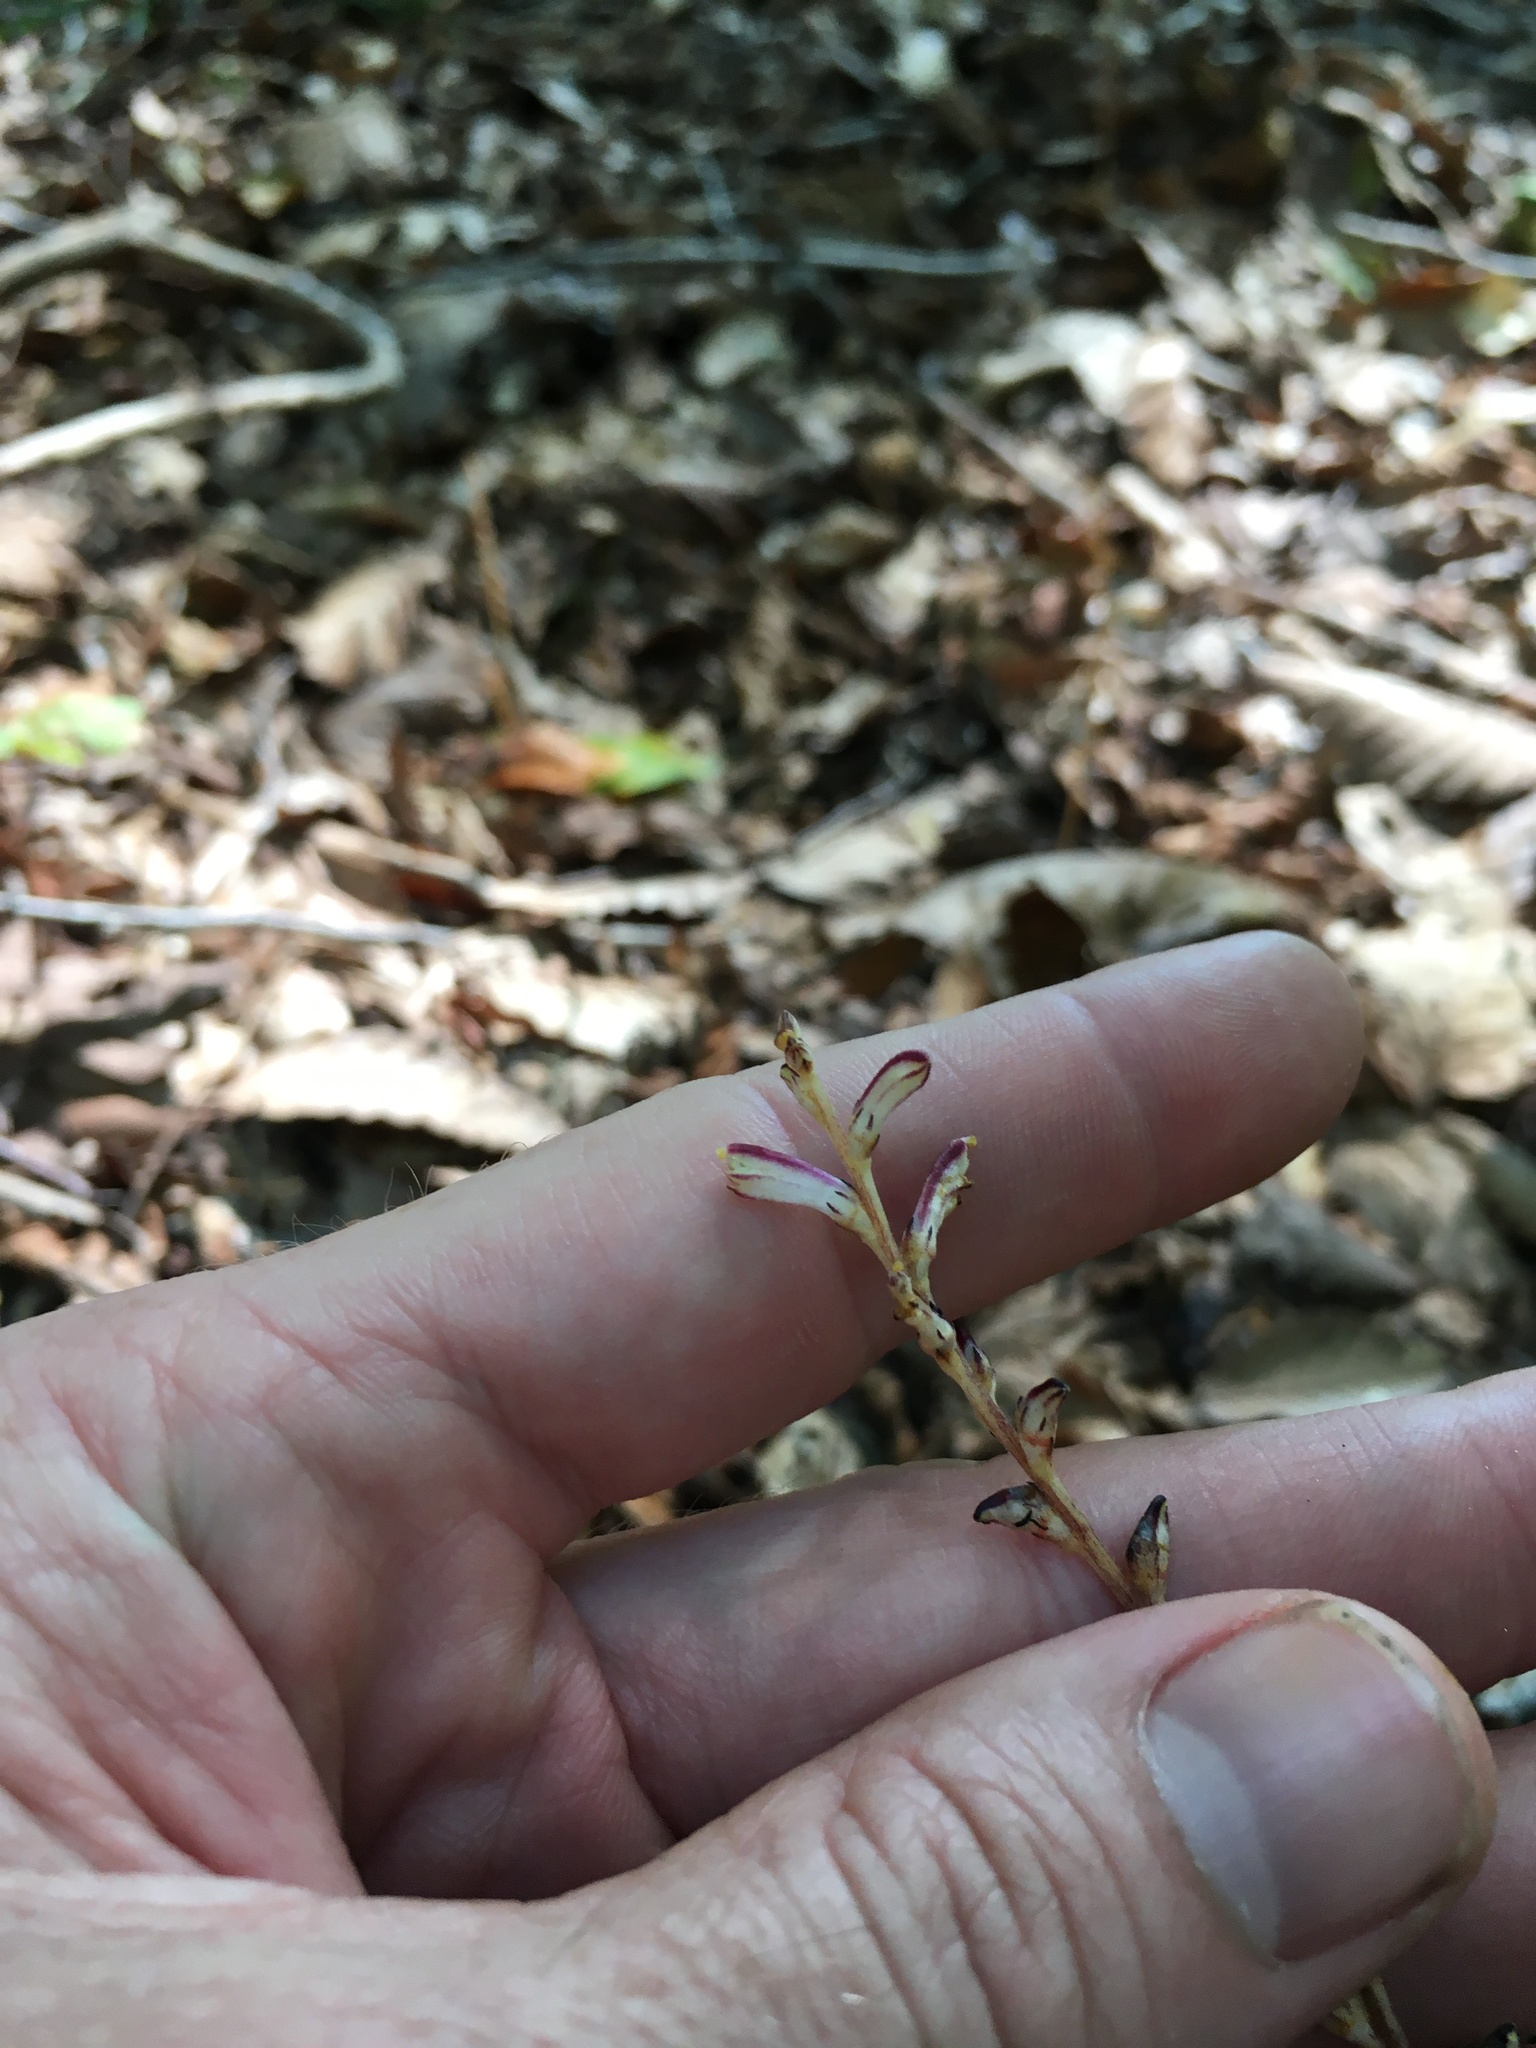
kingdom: Plantae
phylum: Tracheophyta
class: Magnoliopsida
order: Lamiales
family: Orobanchaceae
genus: Epifagus
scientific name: Epifagus virginiana
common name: Beechdrops
